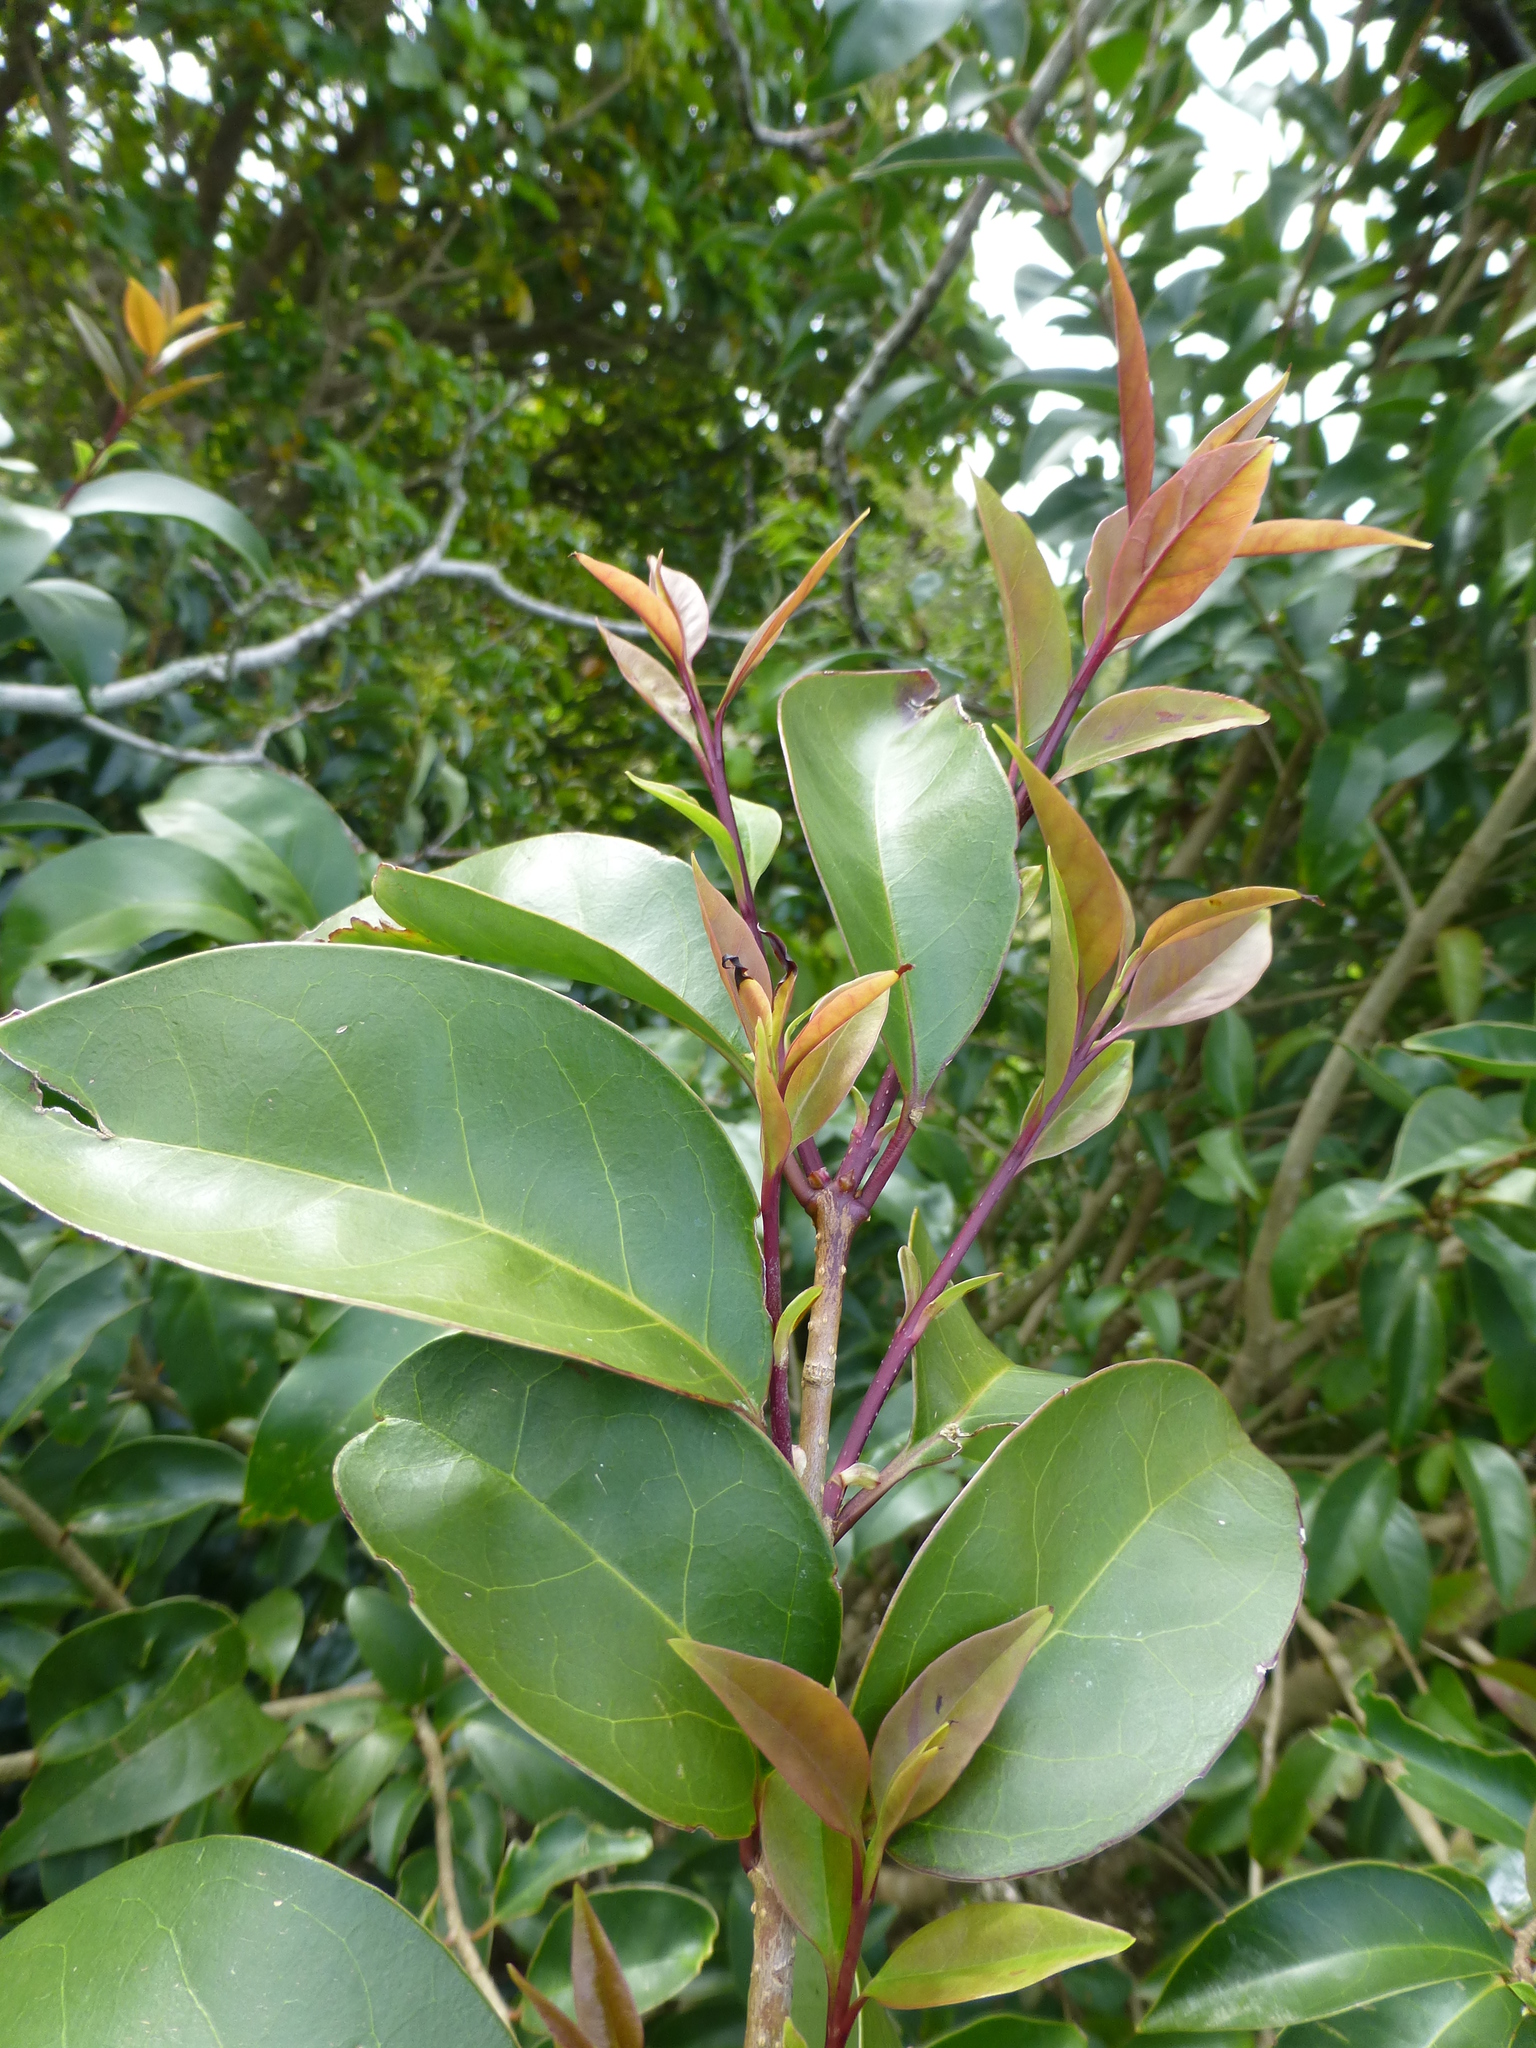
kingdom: Plantae
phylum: Tracheophyta
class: Magnoliopsida
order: Lamiales
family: Oleaceae
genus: Ligustrum
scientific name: Ligustrum lucidum
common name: Glossy privet
